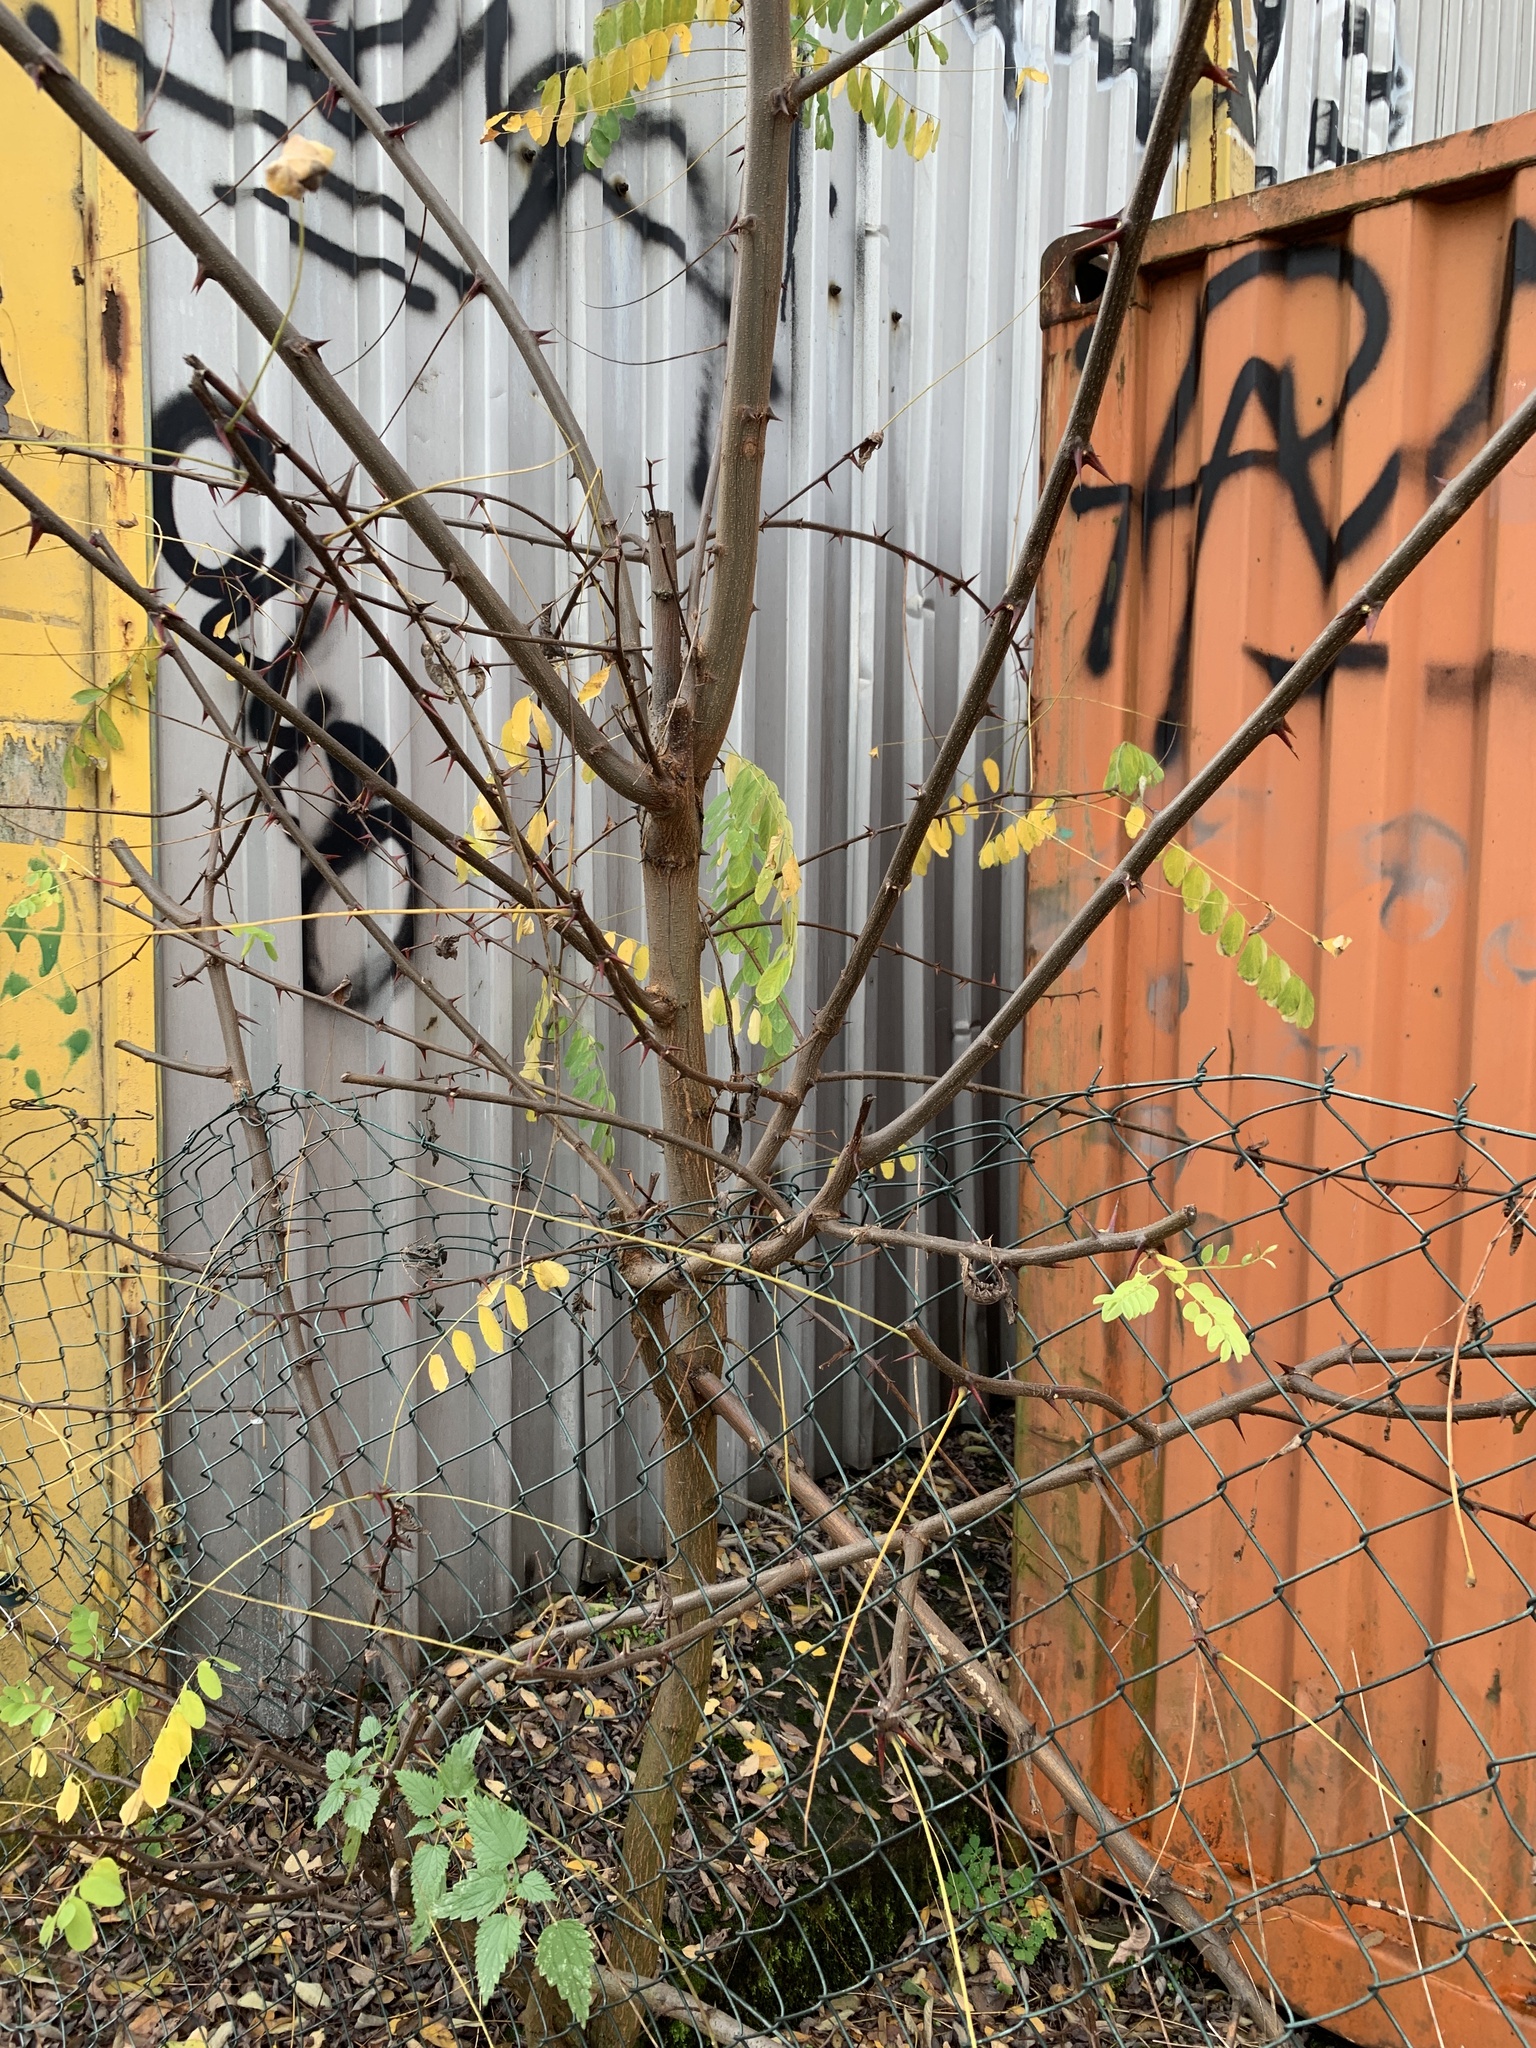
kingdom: Plantae
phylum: Tracheophyta
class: Magnoliopsida
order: Fabales
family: Fabaceae
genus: Robinia
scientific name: Robinia pseudoacacia
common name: Black locust
